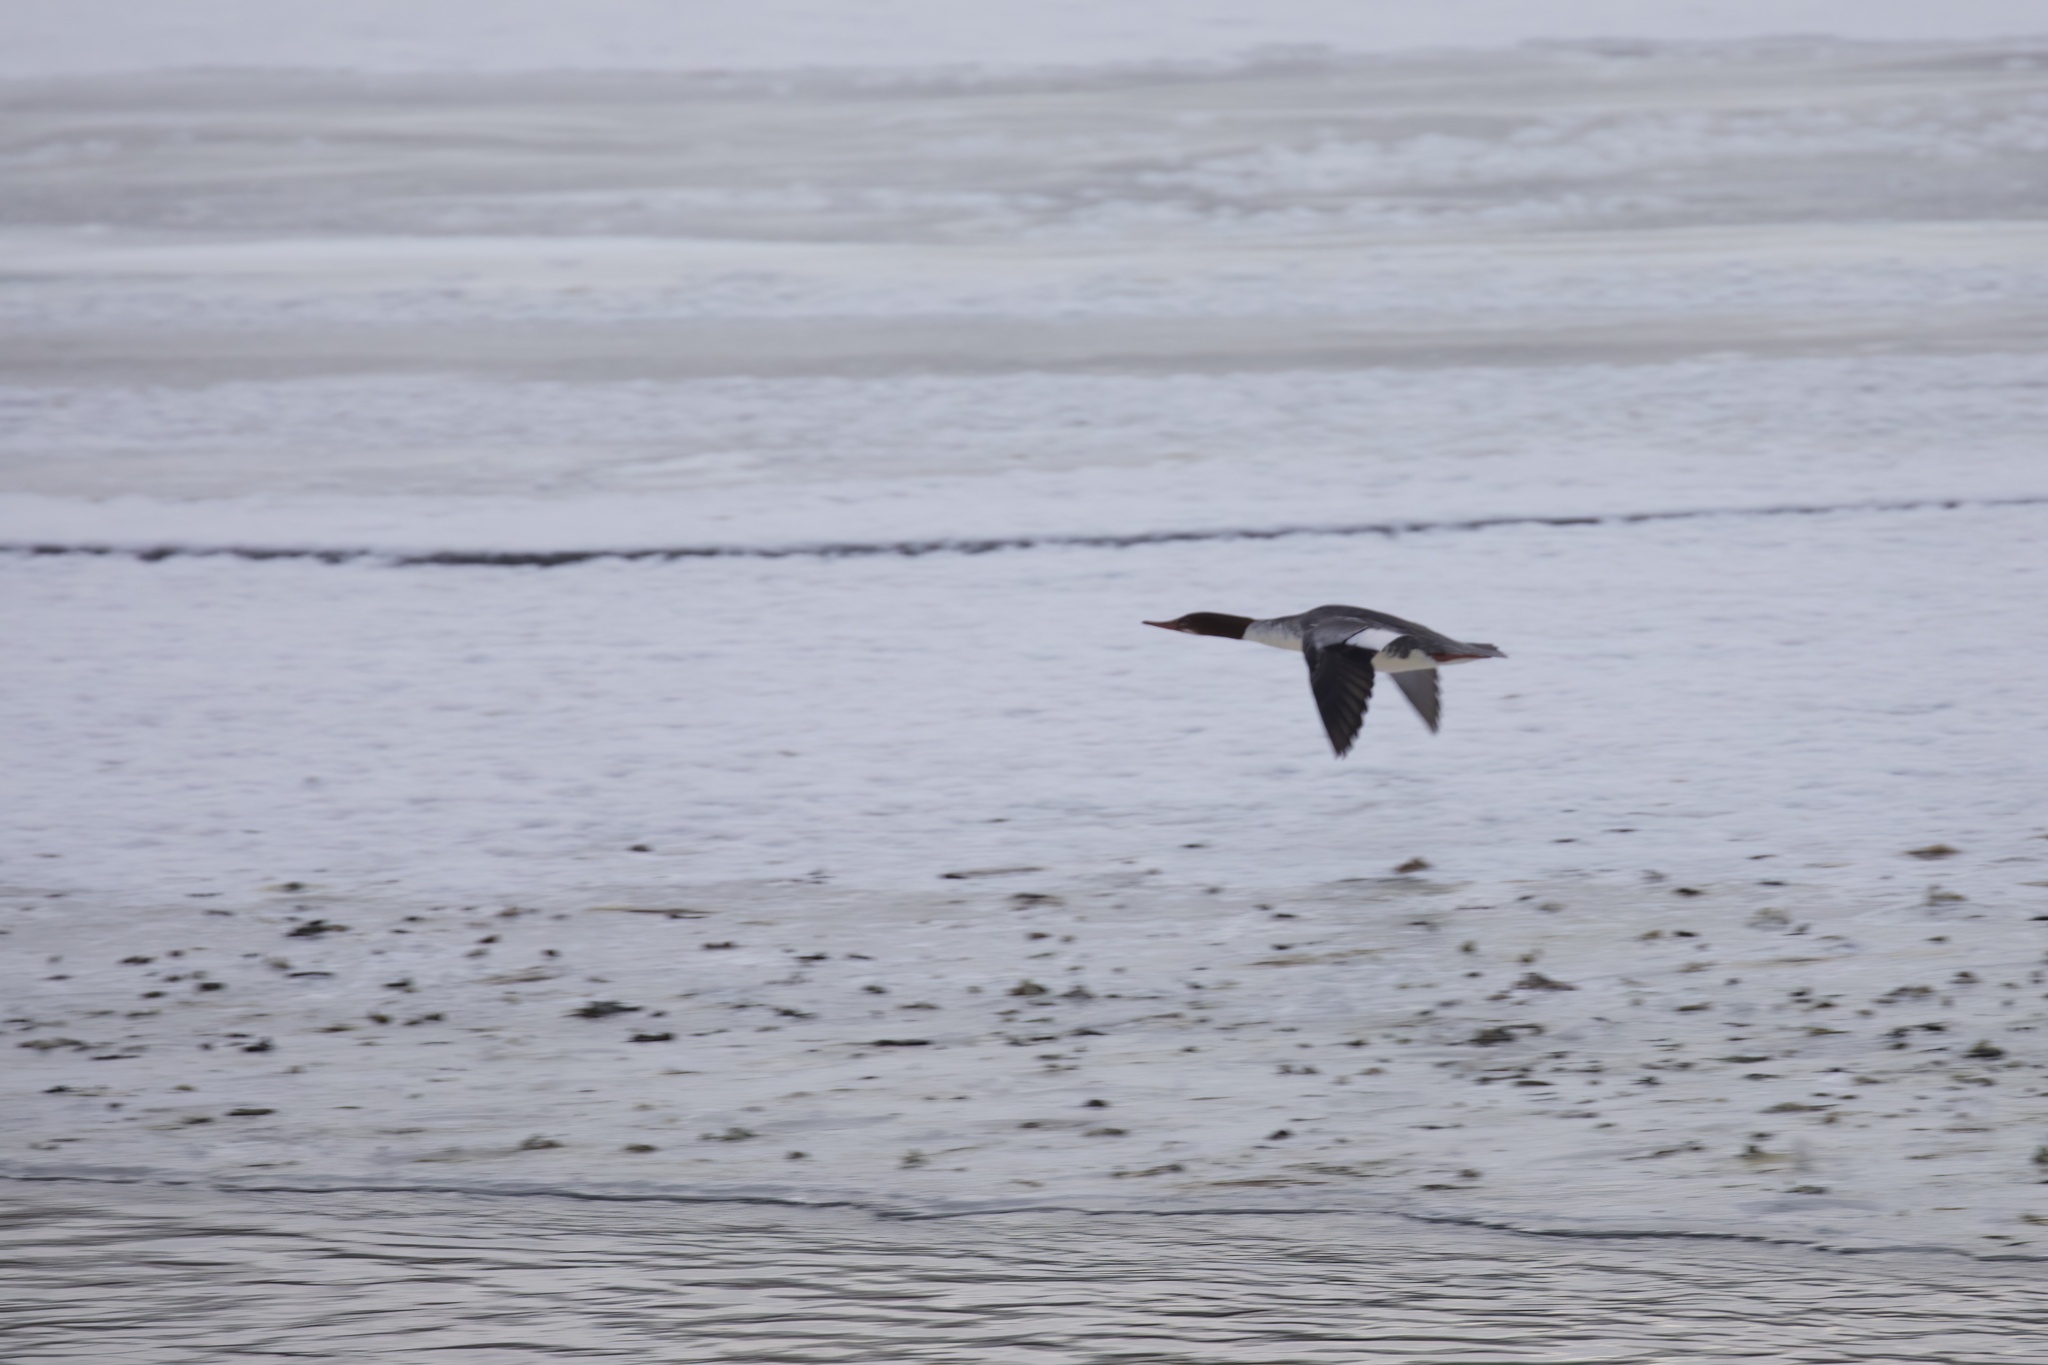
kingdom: Animalia
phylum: Chordata
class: Aves
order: Anseriformes
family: Anatidae
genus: Mergus
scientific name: Mergus merganser
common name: Common merganser
